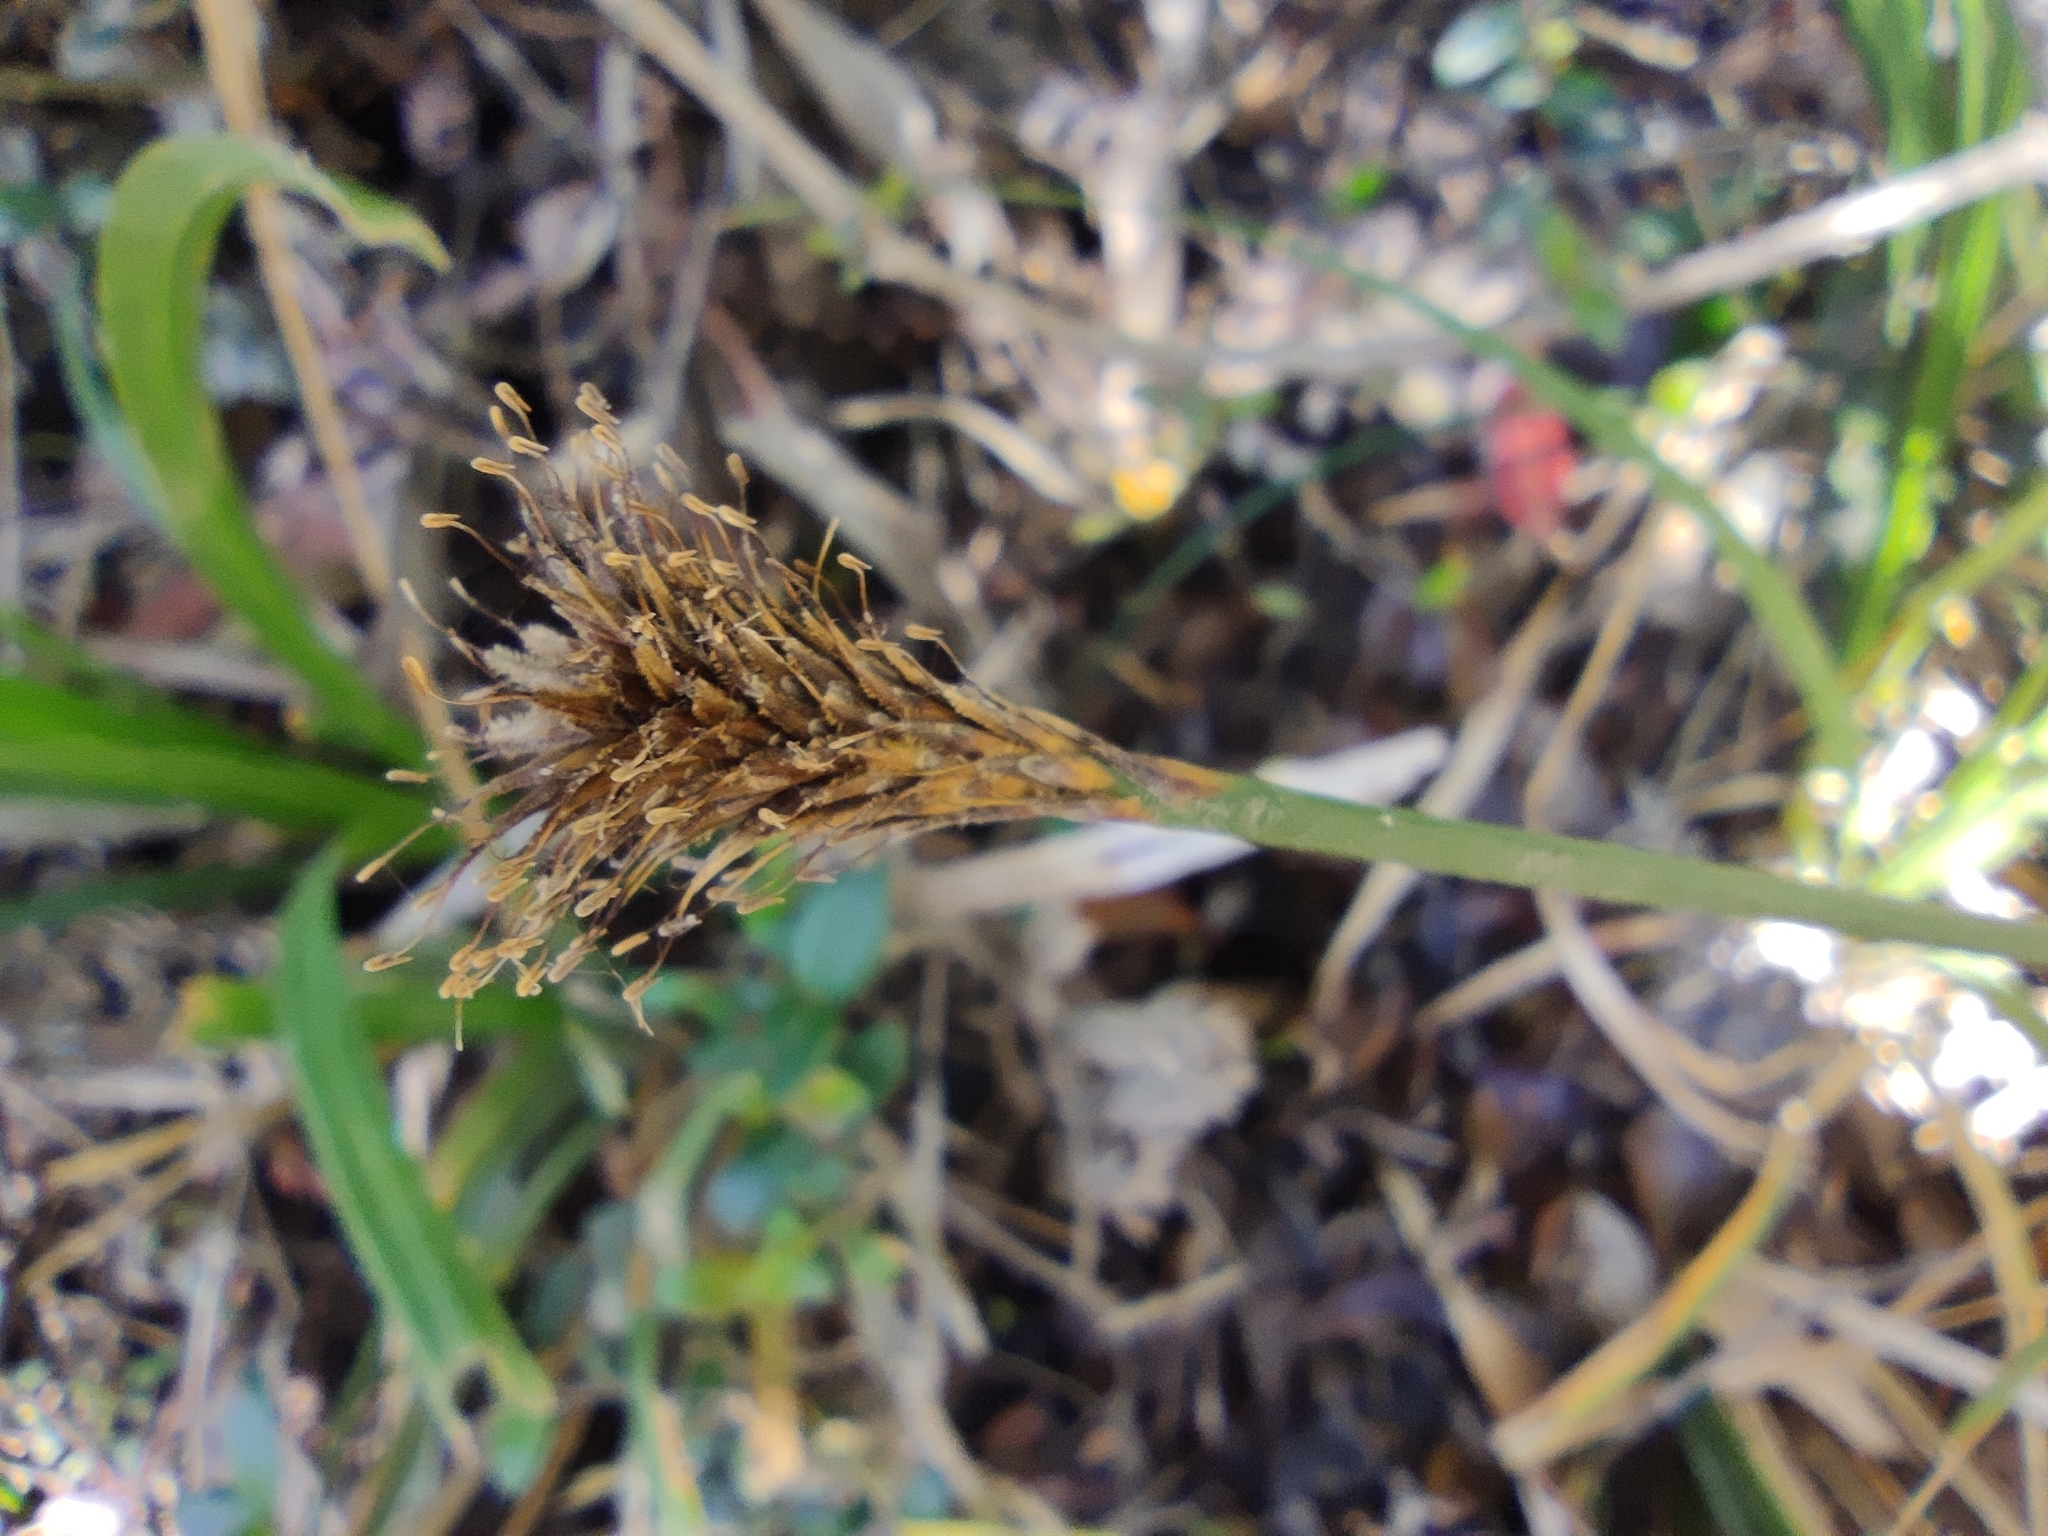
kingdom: Plantae
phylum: Tracheophyta
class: Liliopsida
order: Poales
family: Cyperaceae
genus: Carex
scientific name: Carex multifaria
